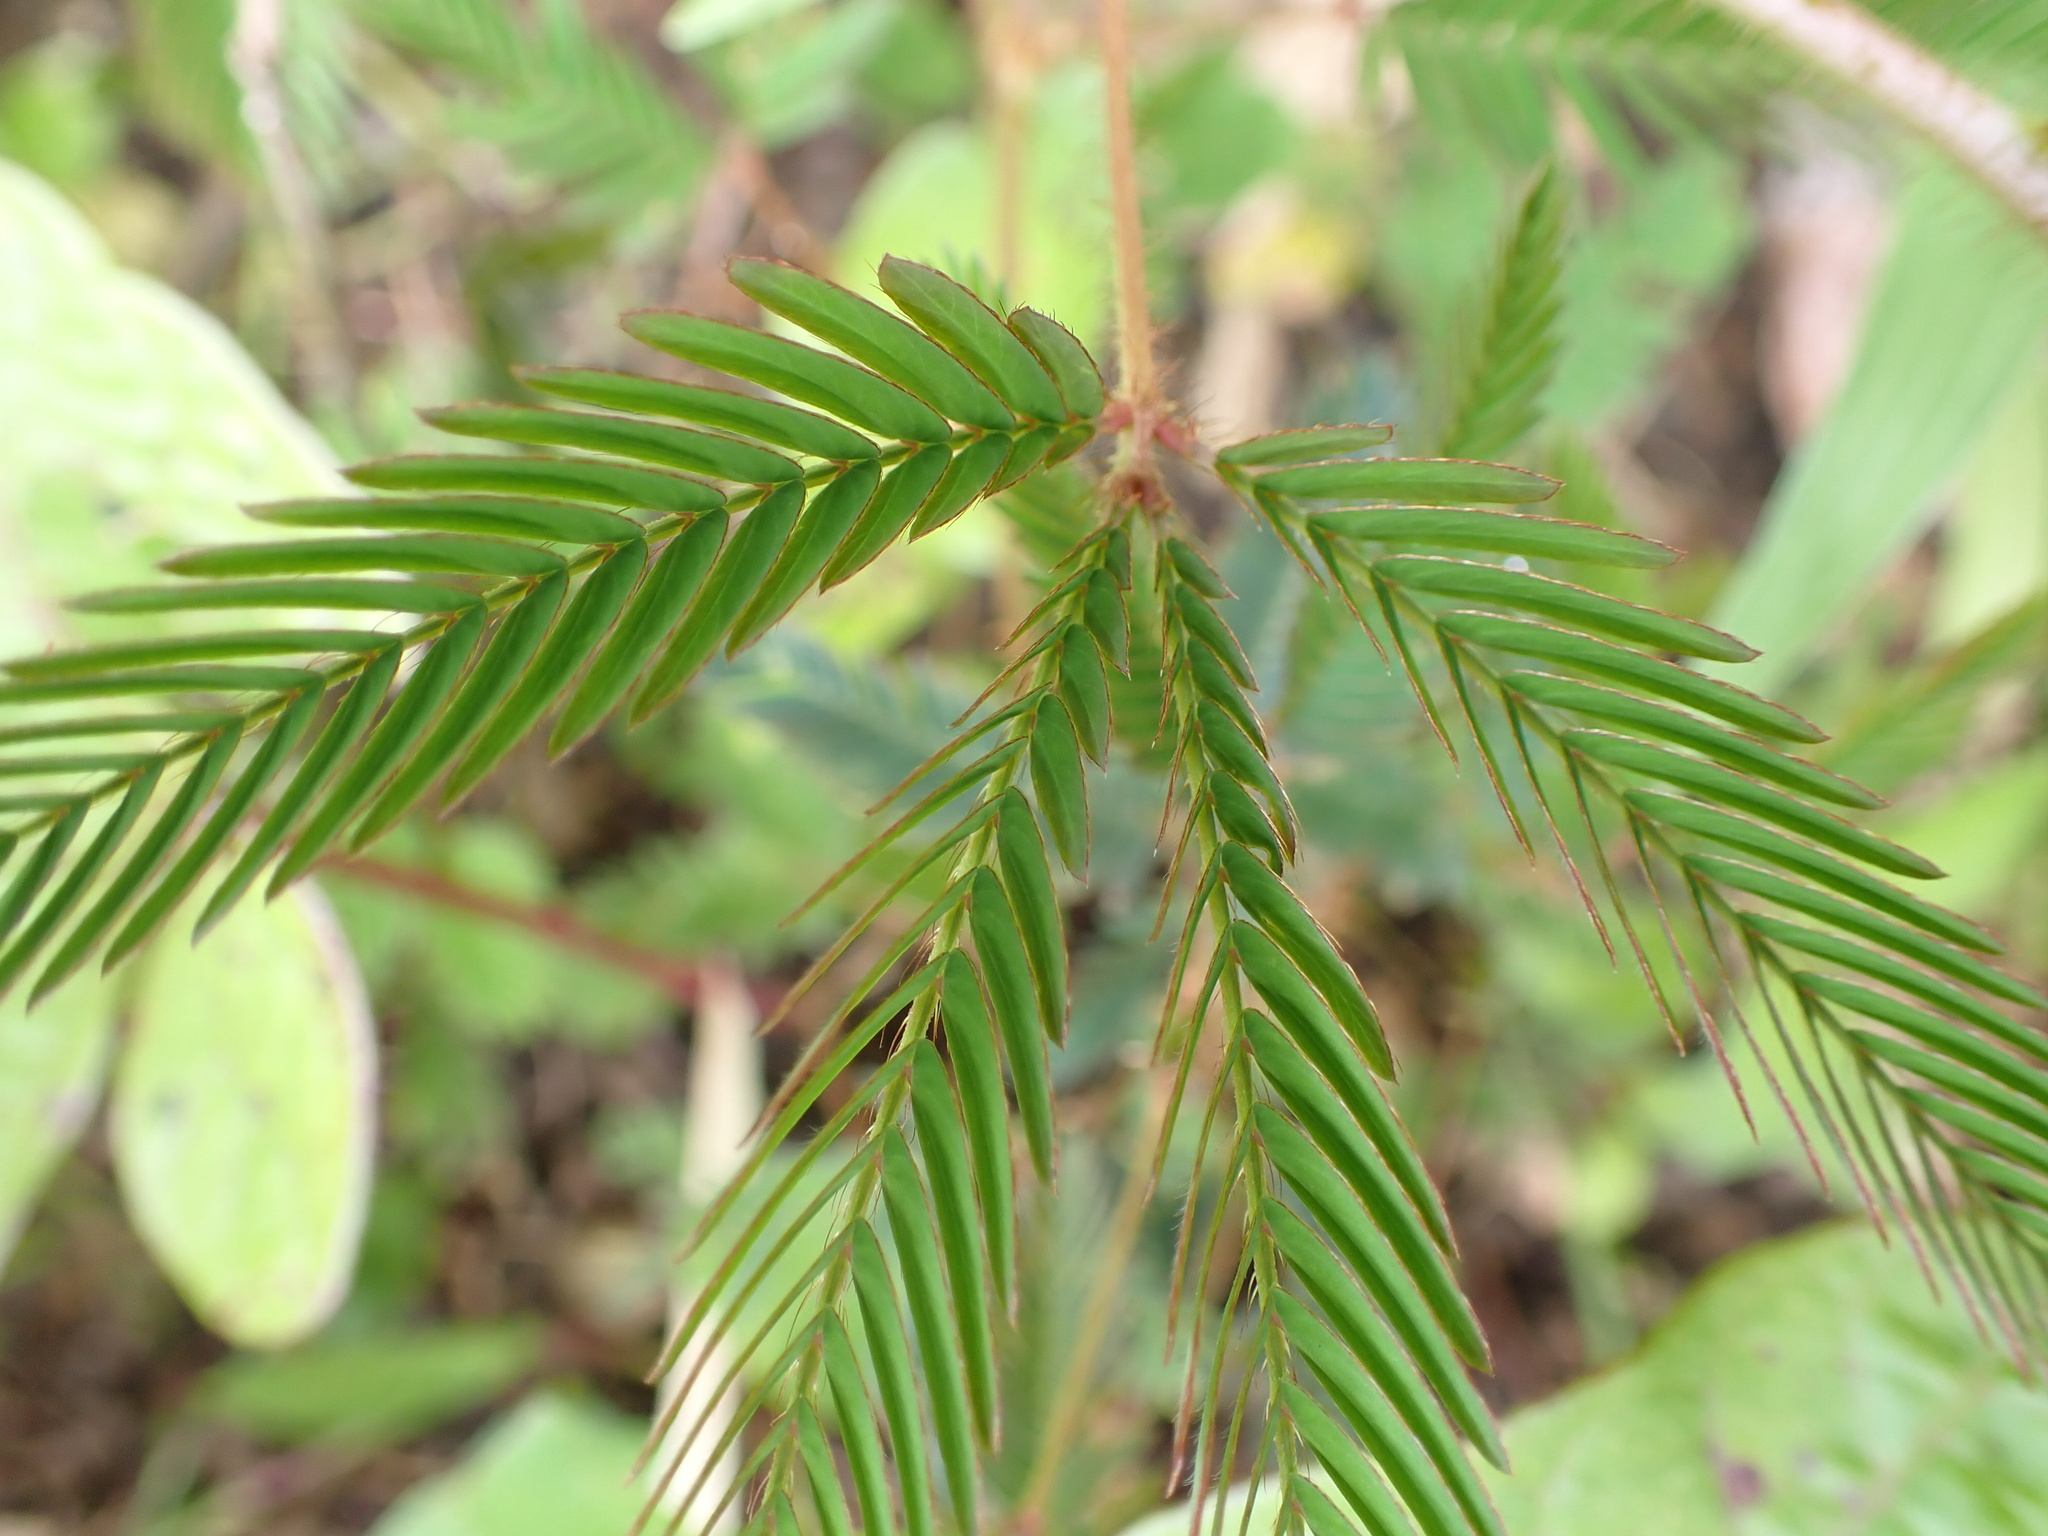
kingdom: Plantae
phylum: Tracheophyta
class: Magnoliopsida
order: Fabales
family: Fabaceae
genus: Mimosa
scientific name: Mimosa pudica
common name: Sensitive plant
